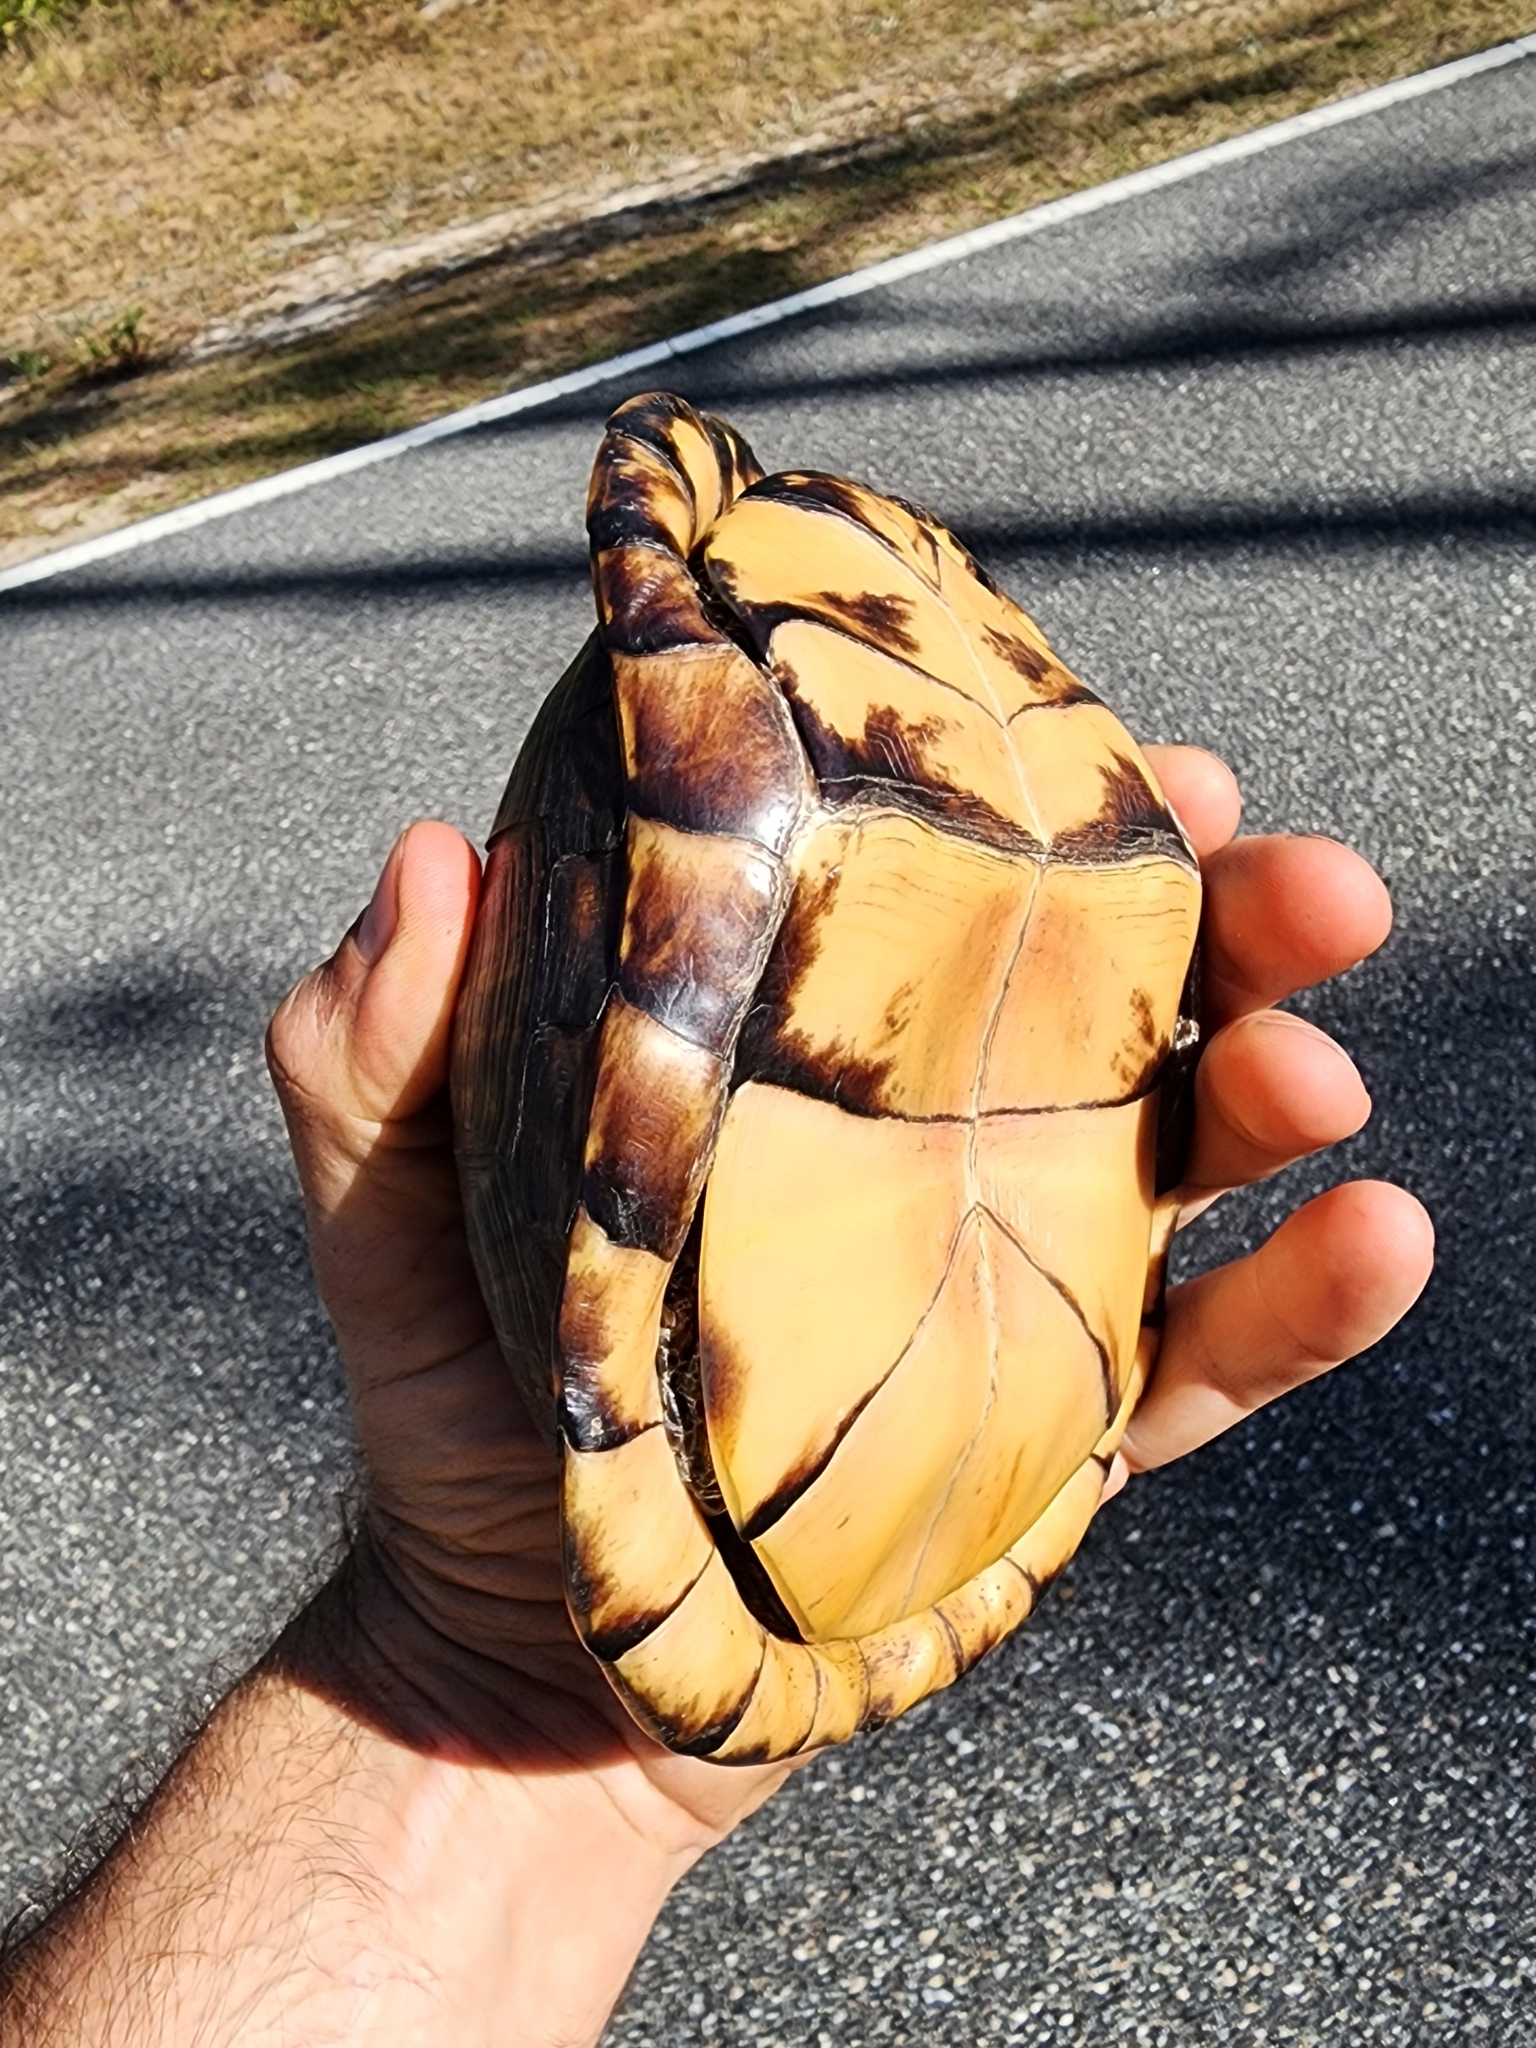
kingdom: Animalia
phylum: Chordata
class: Testudines
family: Emydidae
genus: Terrapene
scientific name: Terrapene carolina
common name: Common box turtle
